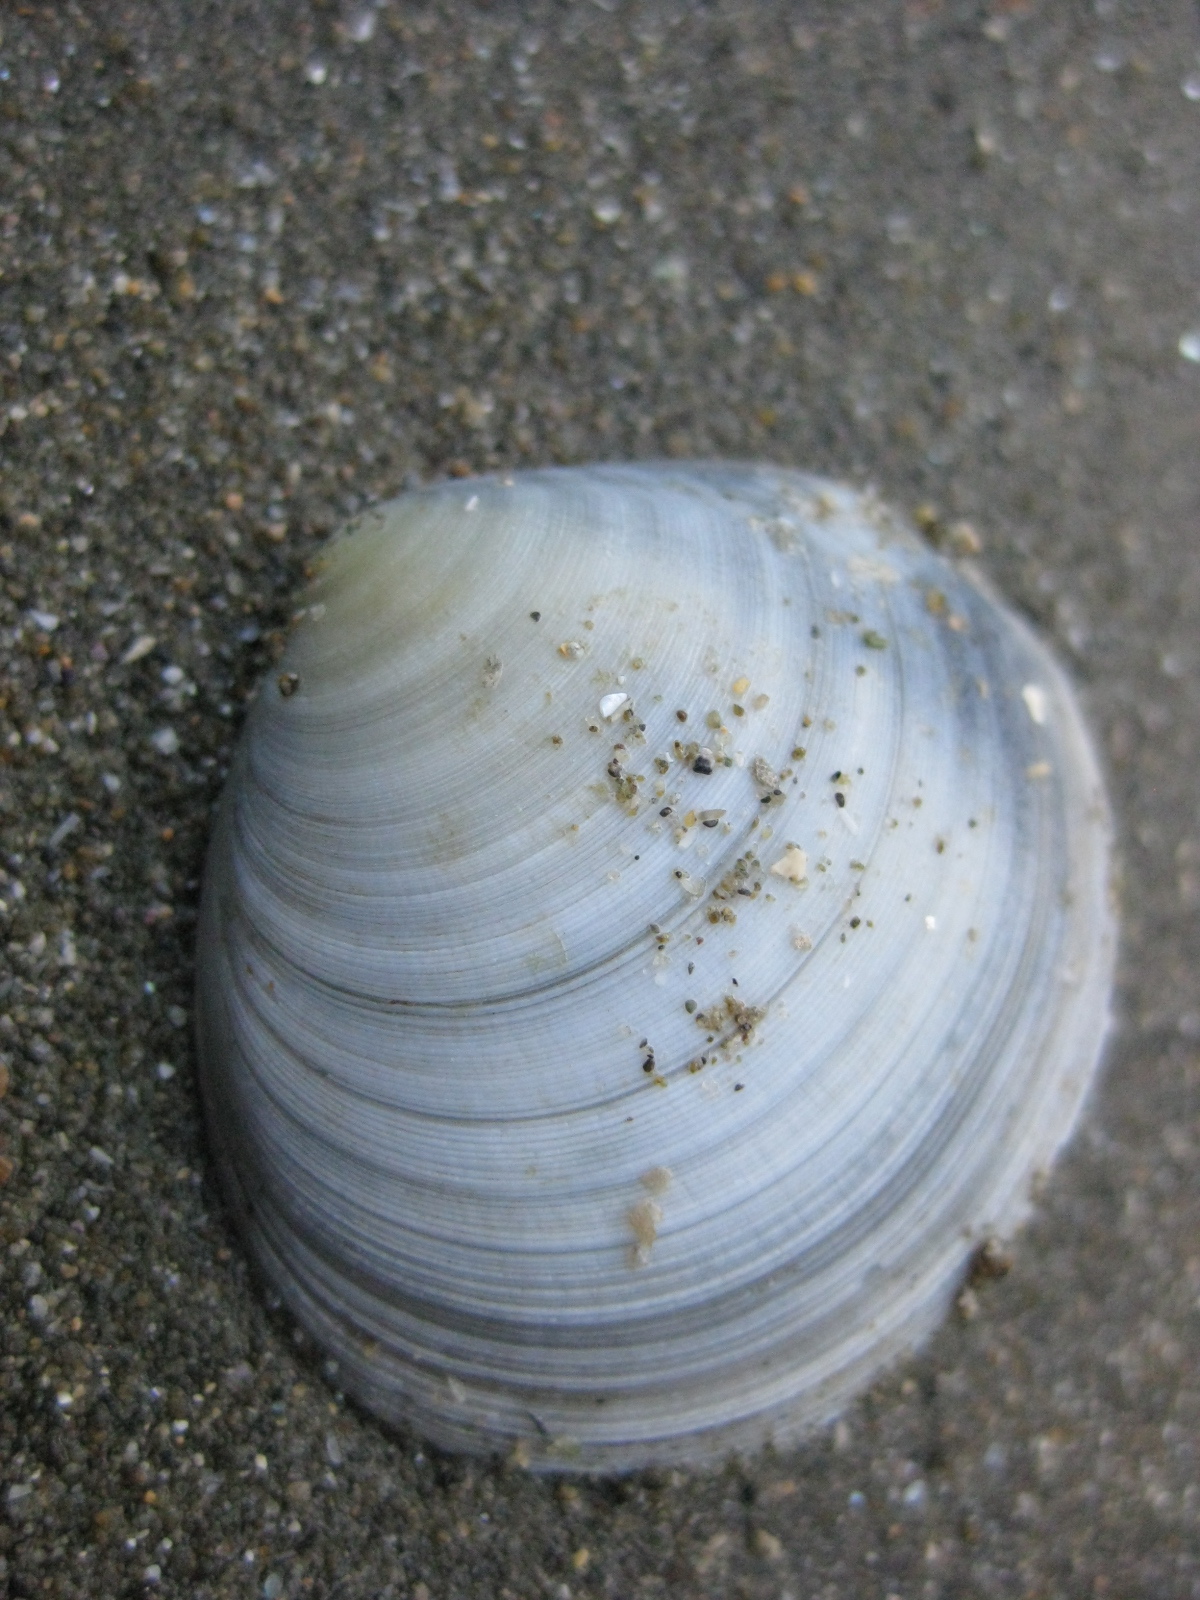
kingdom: Animalia
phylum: Mollusca
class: Bivalvia
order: Cardiida
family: Tellinidae
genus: Pseudarcopagia
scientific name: Pseudarcopagia disculus
